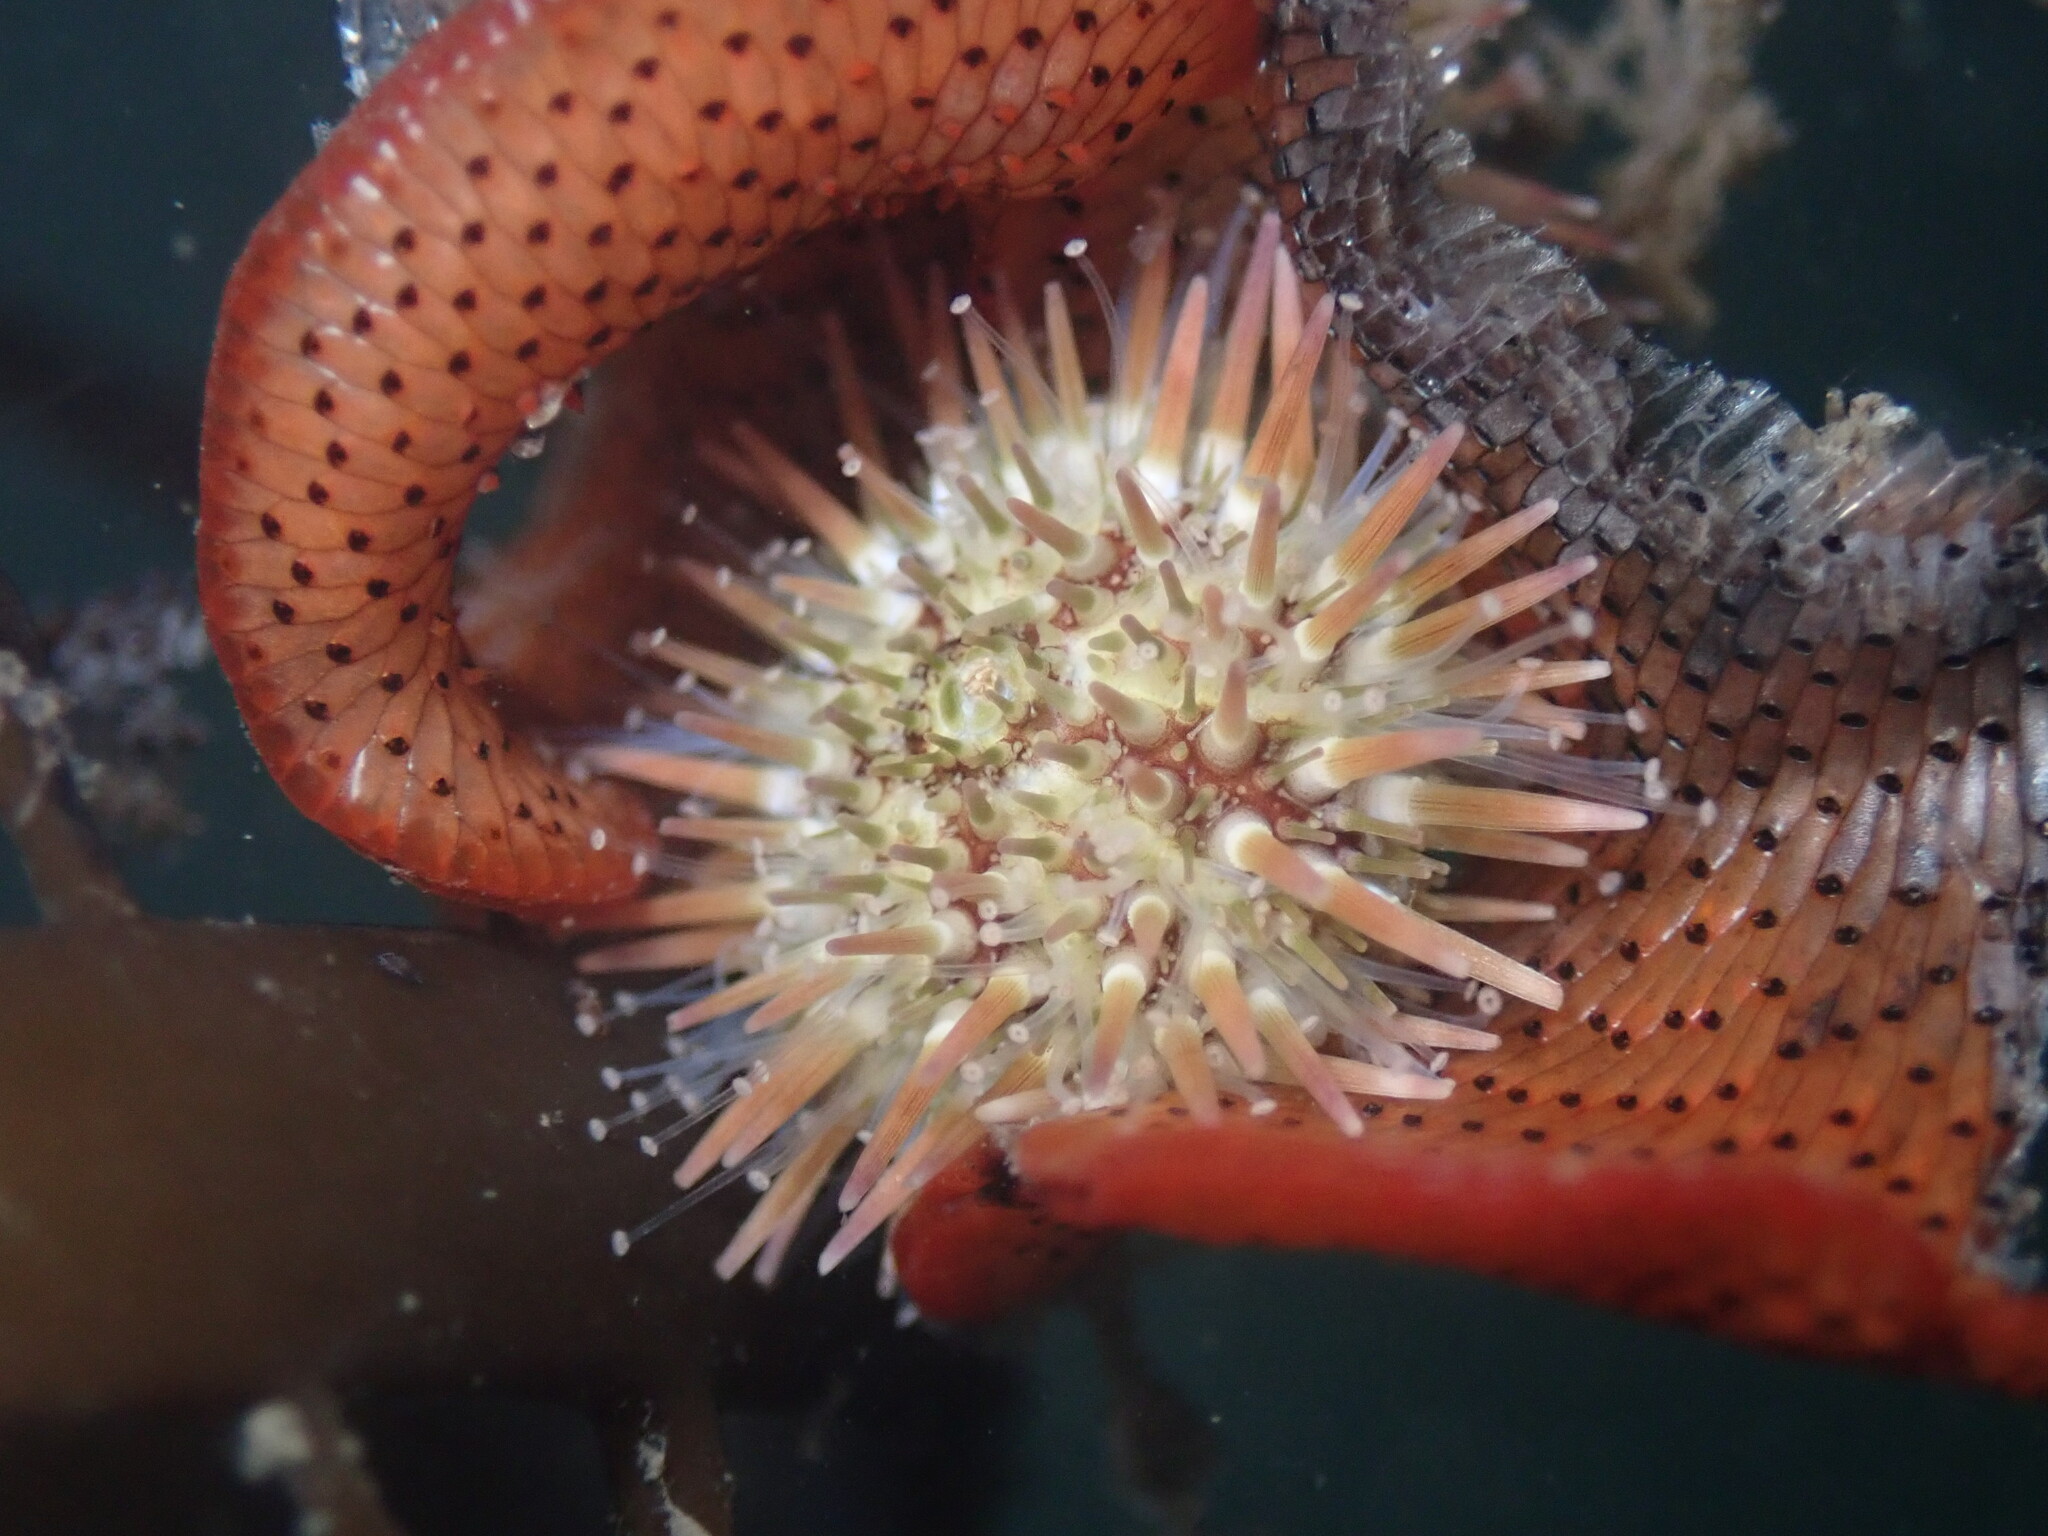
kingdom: Animalia
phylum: Echinodermata
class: Echinoidea
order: Camarodonta
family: Strongylocentrotidae
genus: Strongylocentrotus
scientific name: Strongylocentrotus purpuratus
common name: Purple sea urchin
